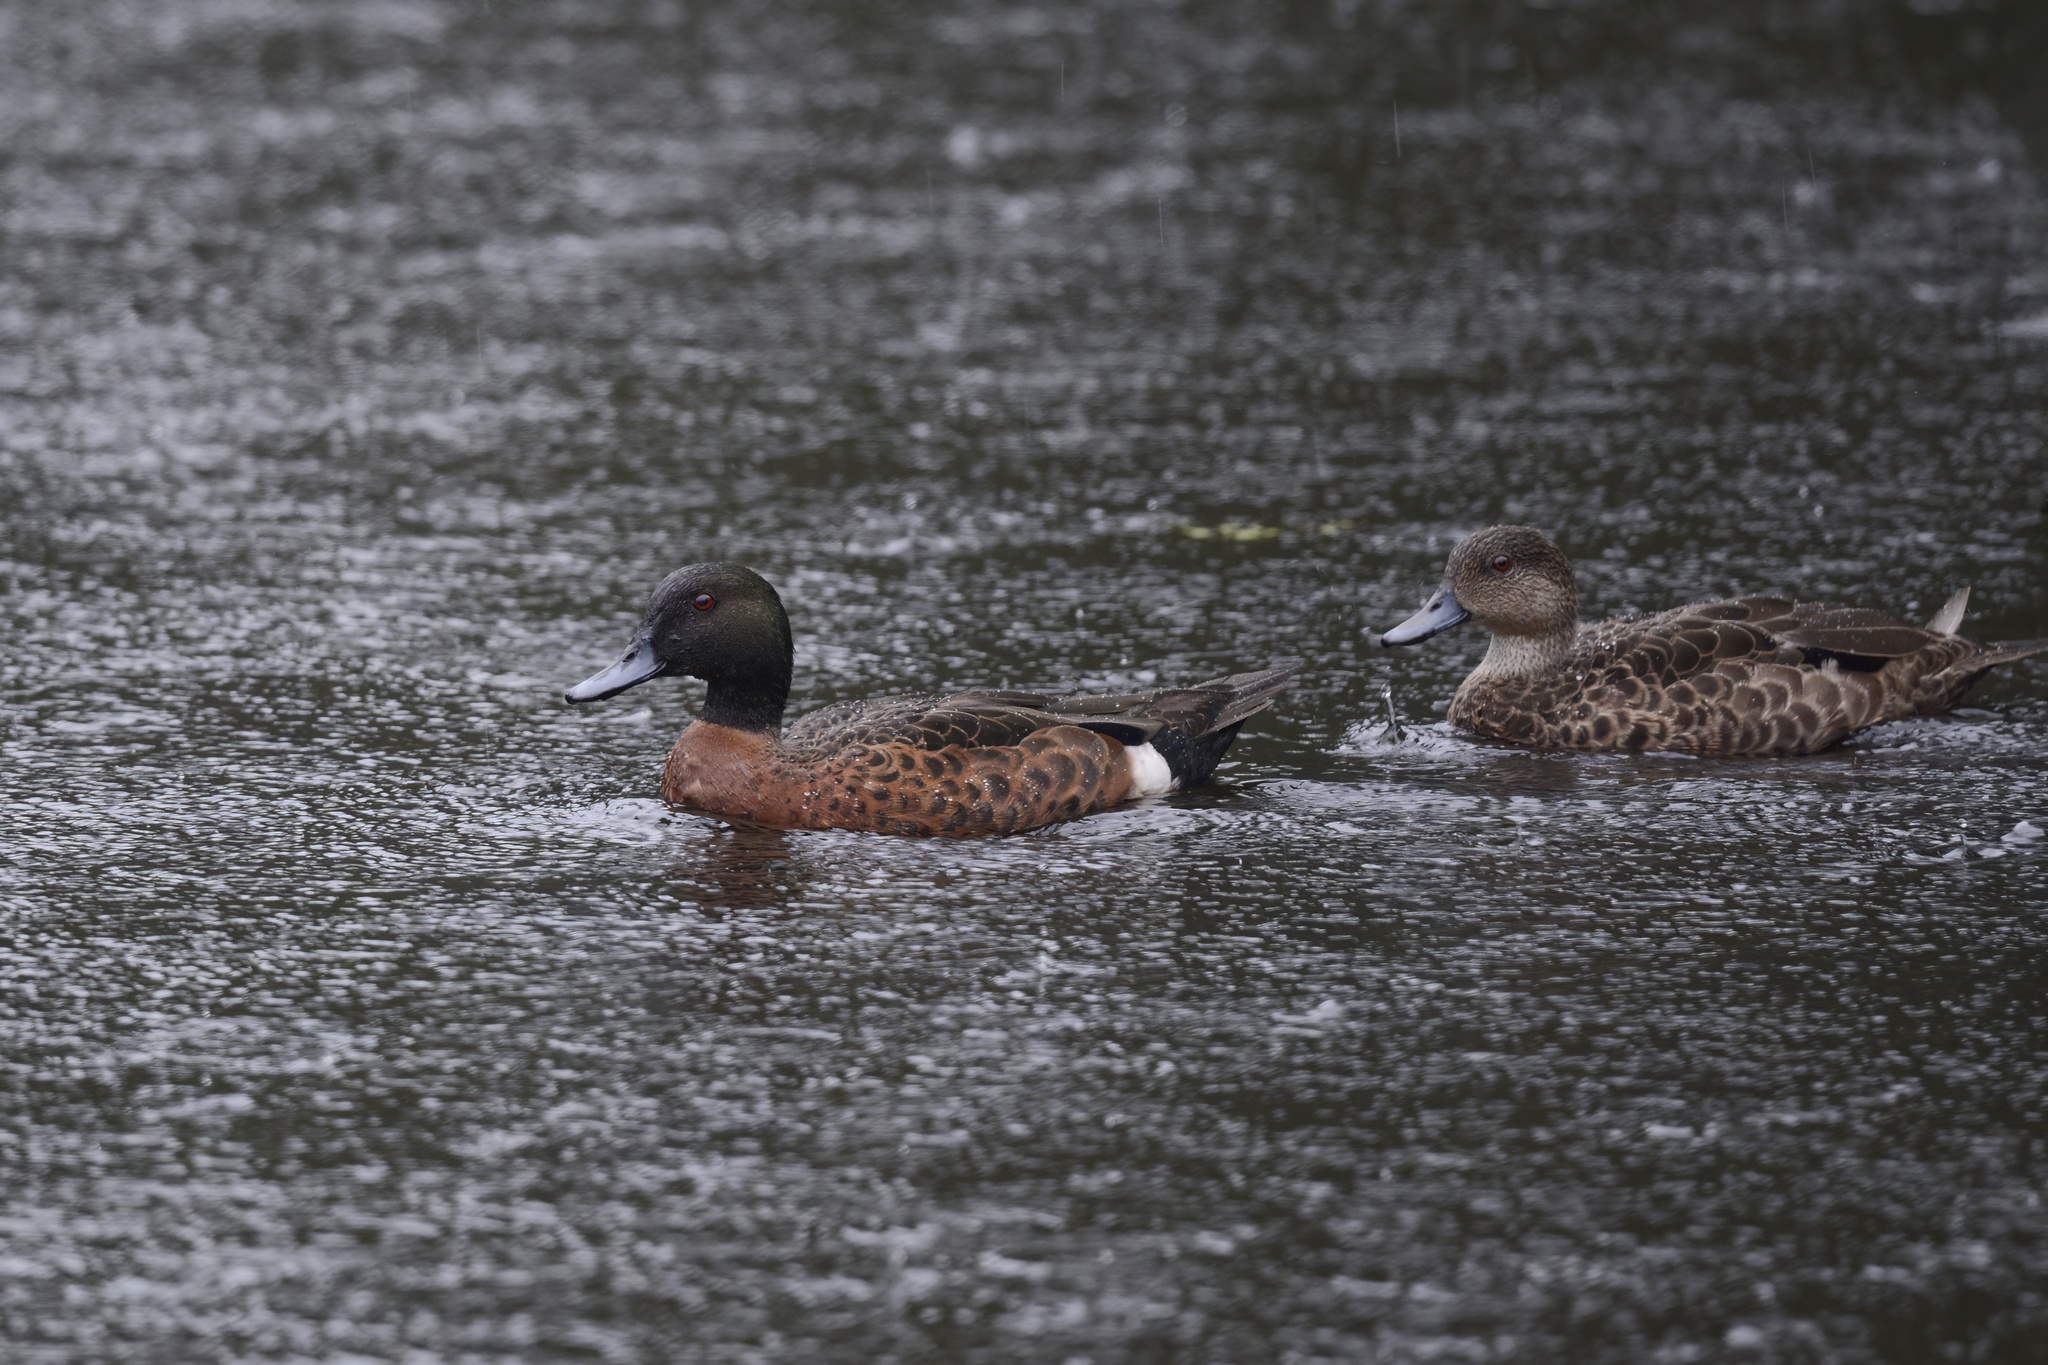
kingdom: Animalia
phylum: Chordata
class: Aves
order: Anseriformes
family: Anatidae
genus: Anas
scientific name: Anas castanea
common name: Chestnut teal
